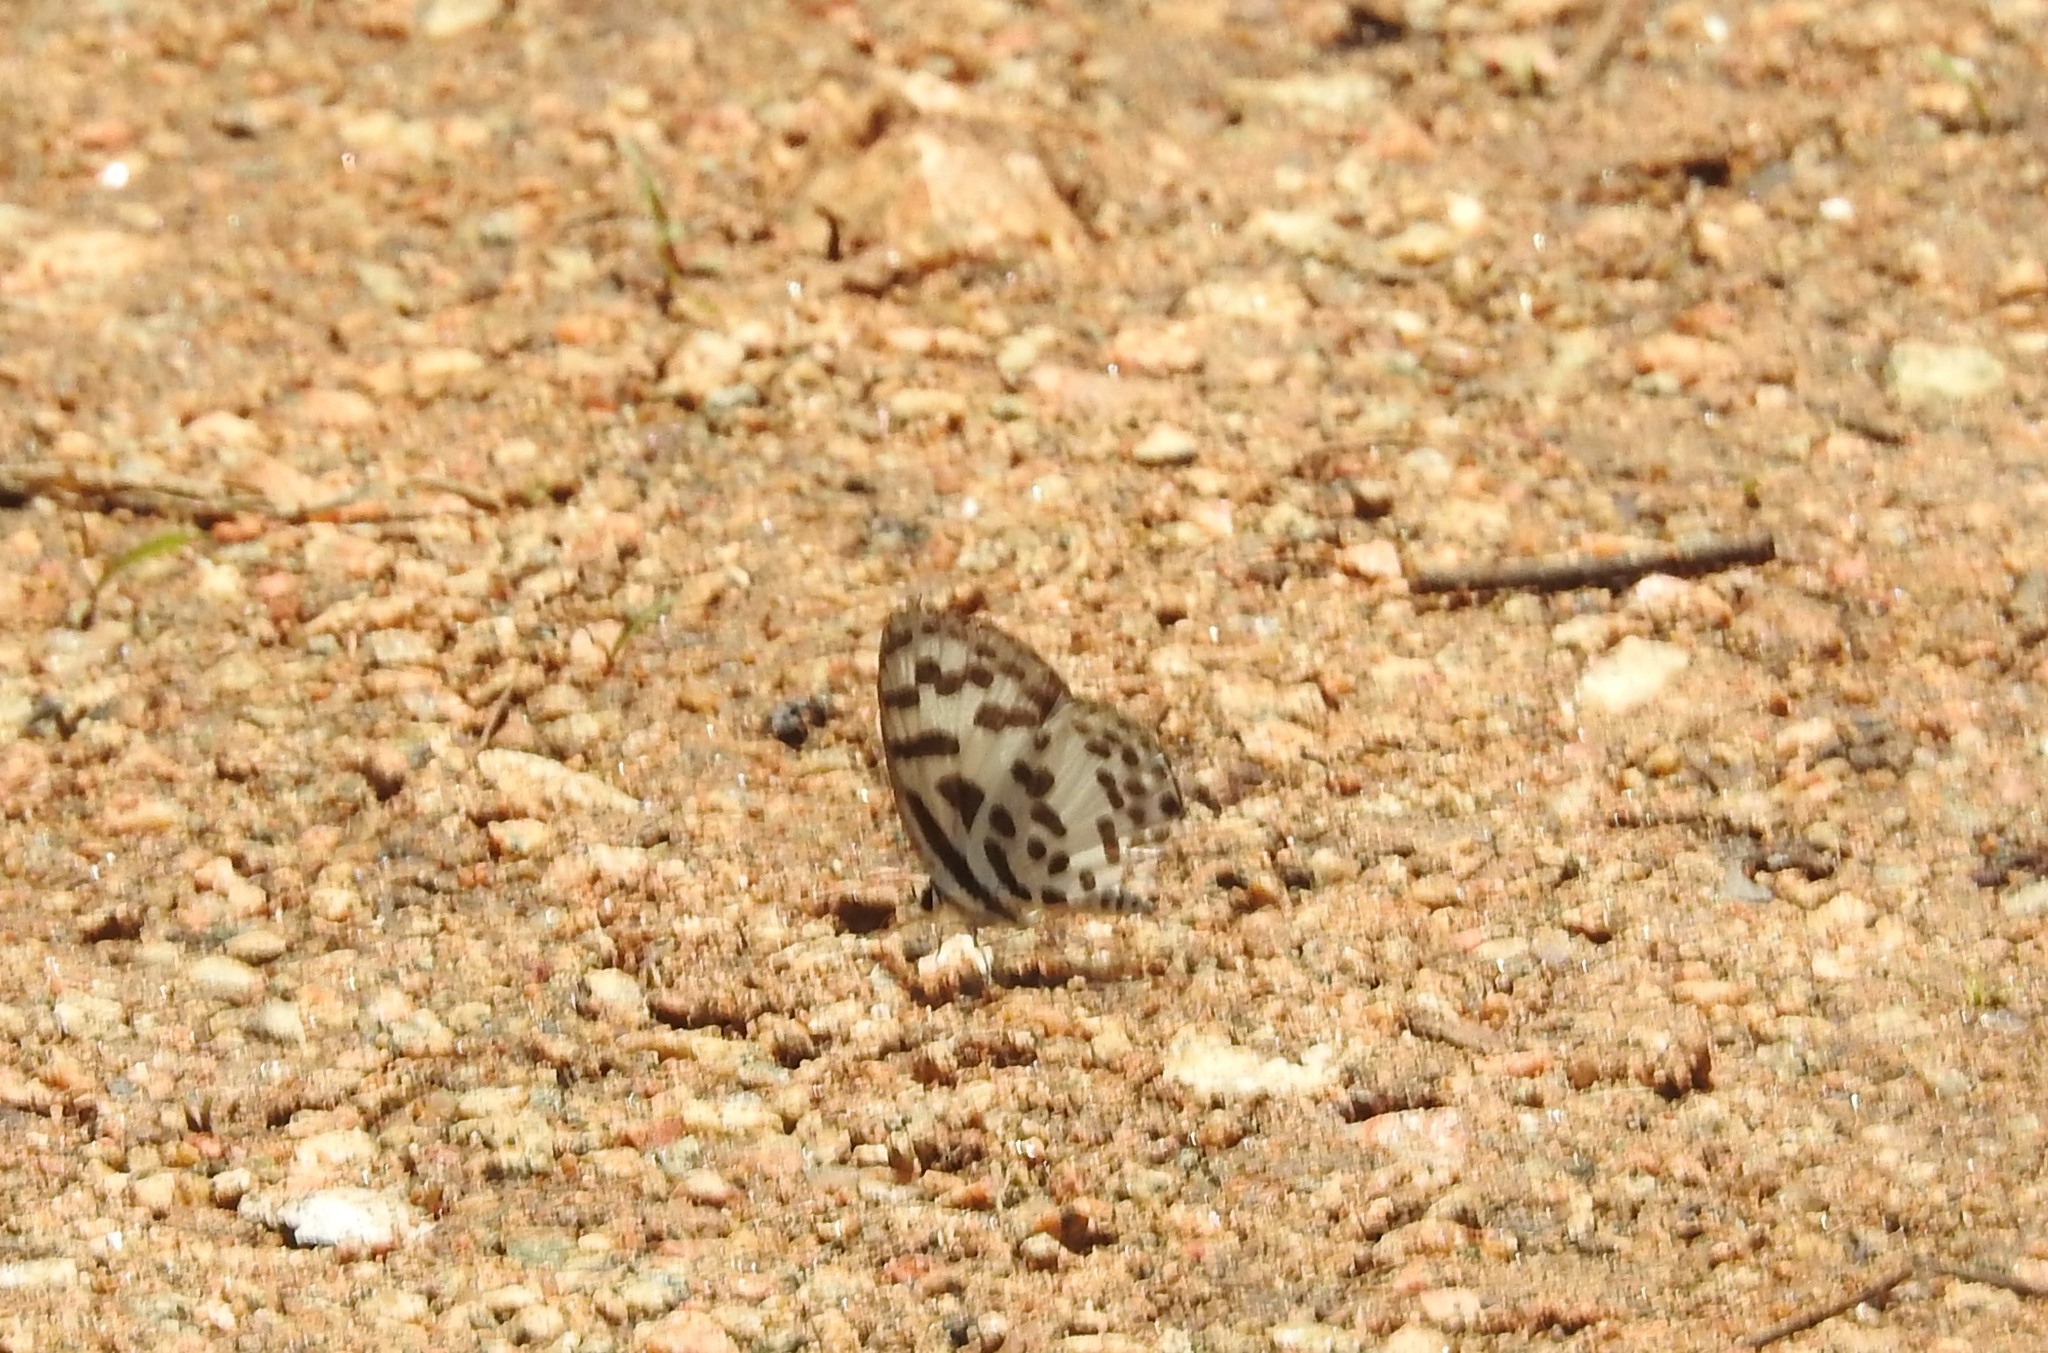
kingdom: Animalia
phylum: Arthropoda
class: Insecta
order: Lepidoptera
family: Lycaenidae
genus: Castalius
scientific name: Castalius rosimon
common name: Common pierrot
